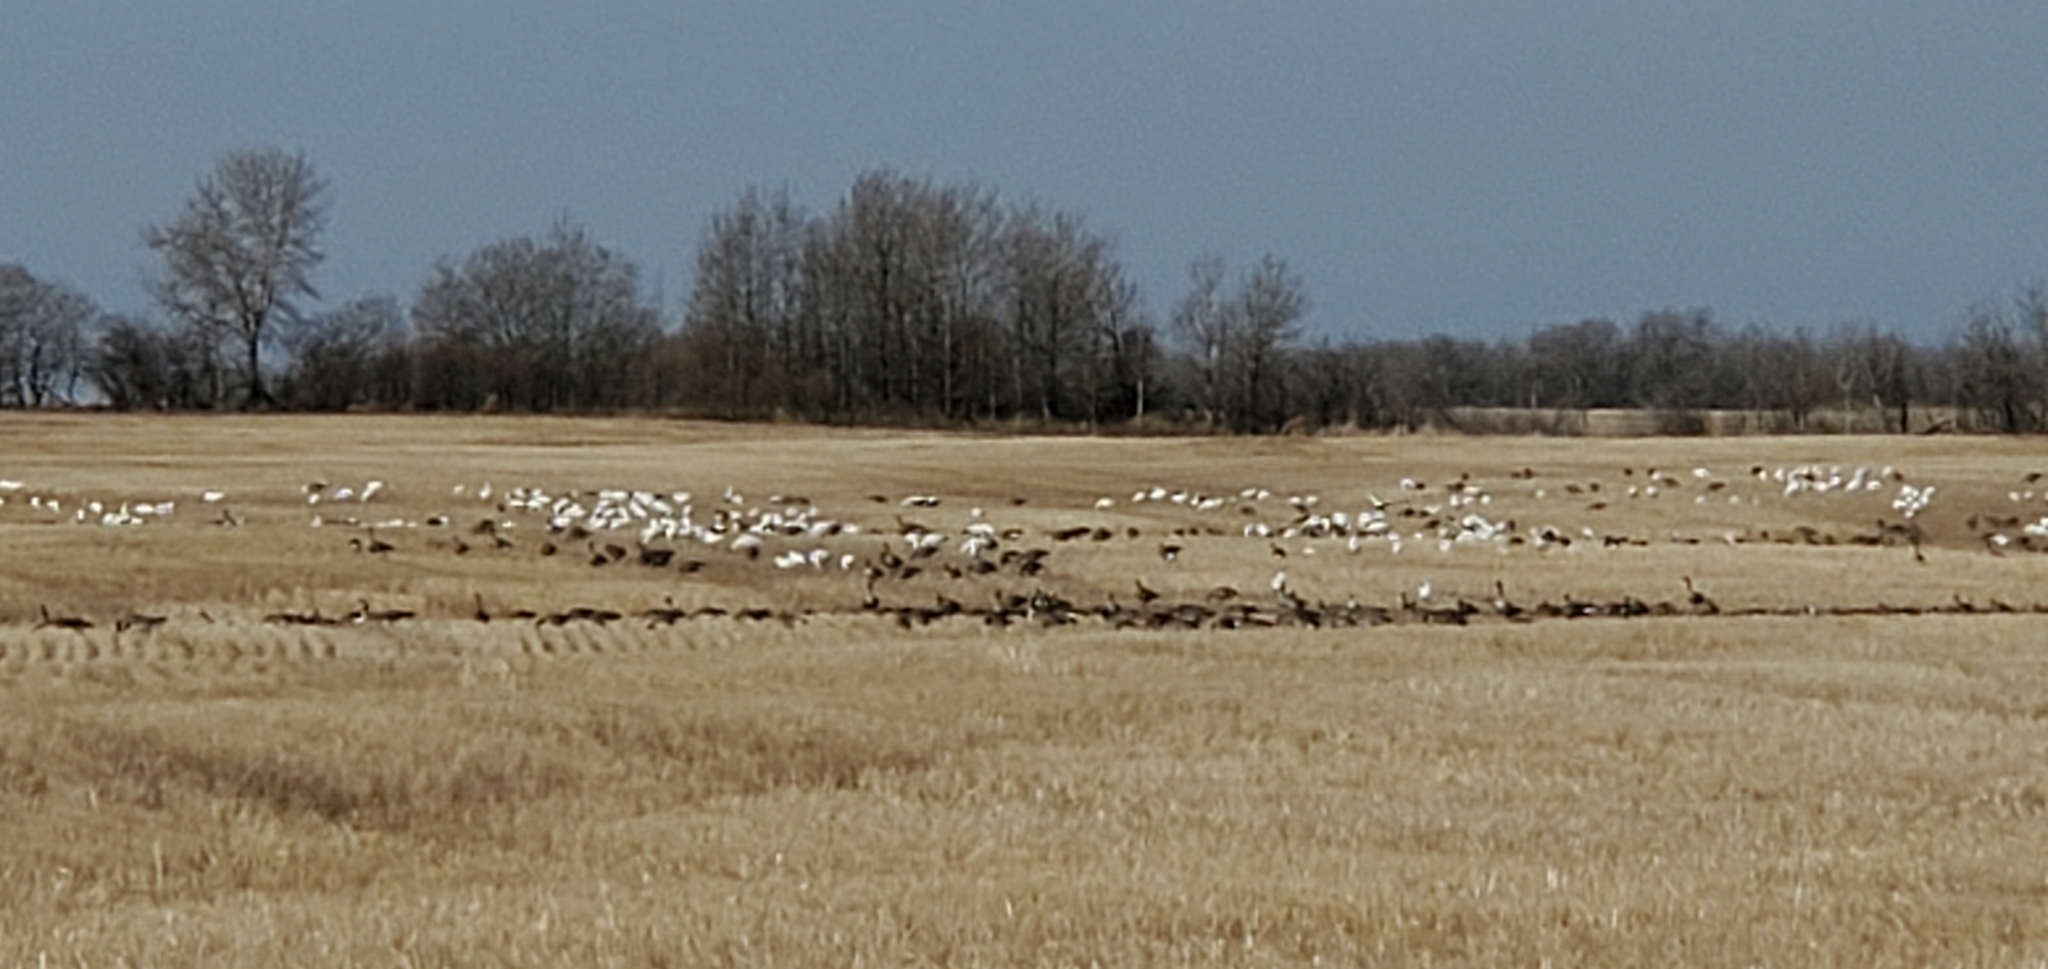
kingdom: Animalia
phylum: Chordata
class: Aves
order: Anseriformes
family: Anatidae
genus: Branta
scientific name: Branta canadensis
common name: Canada goose
